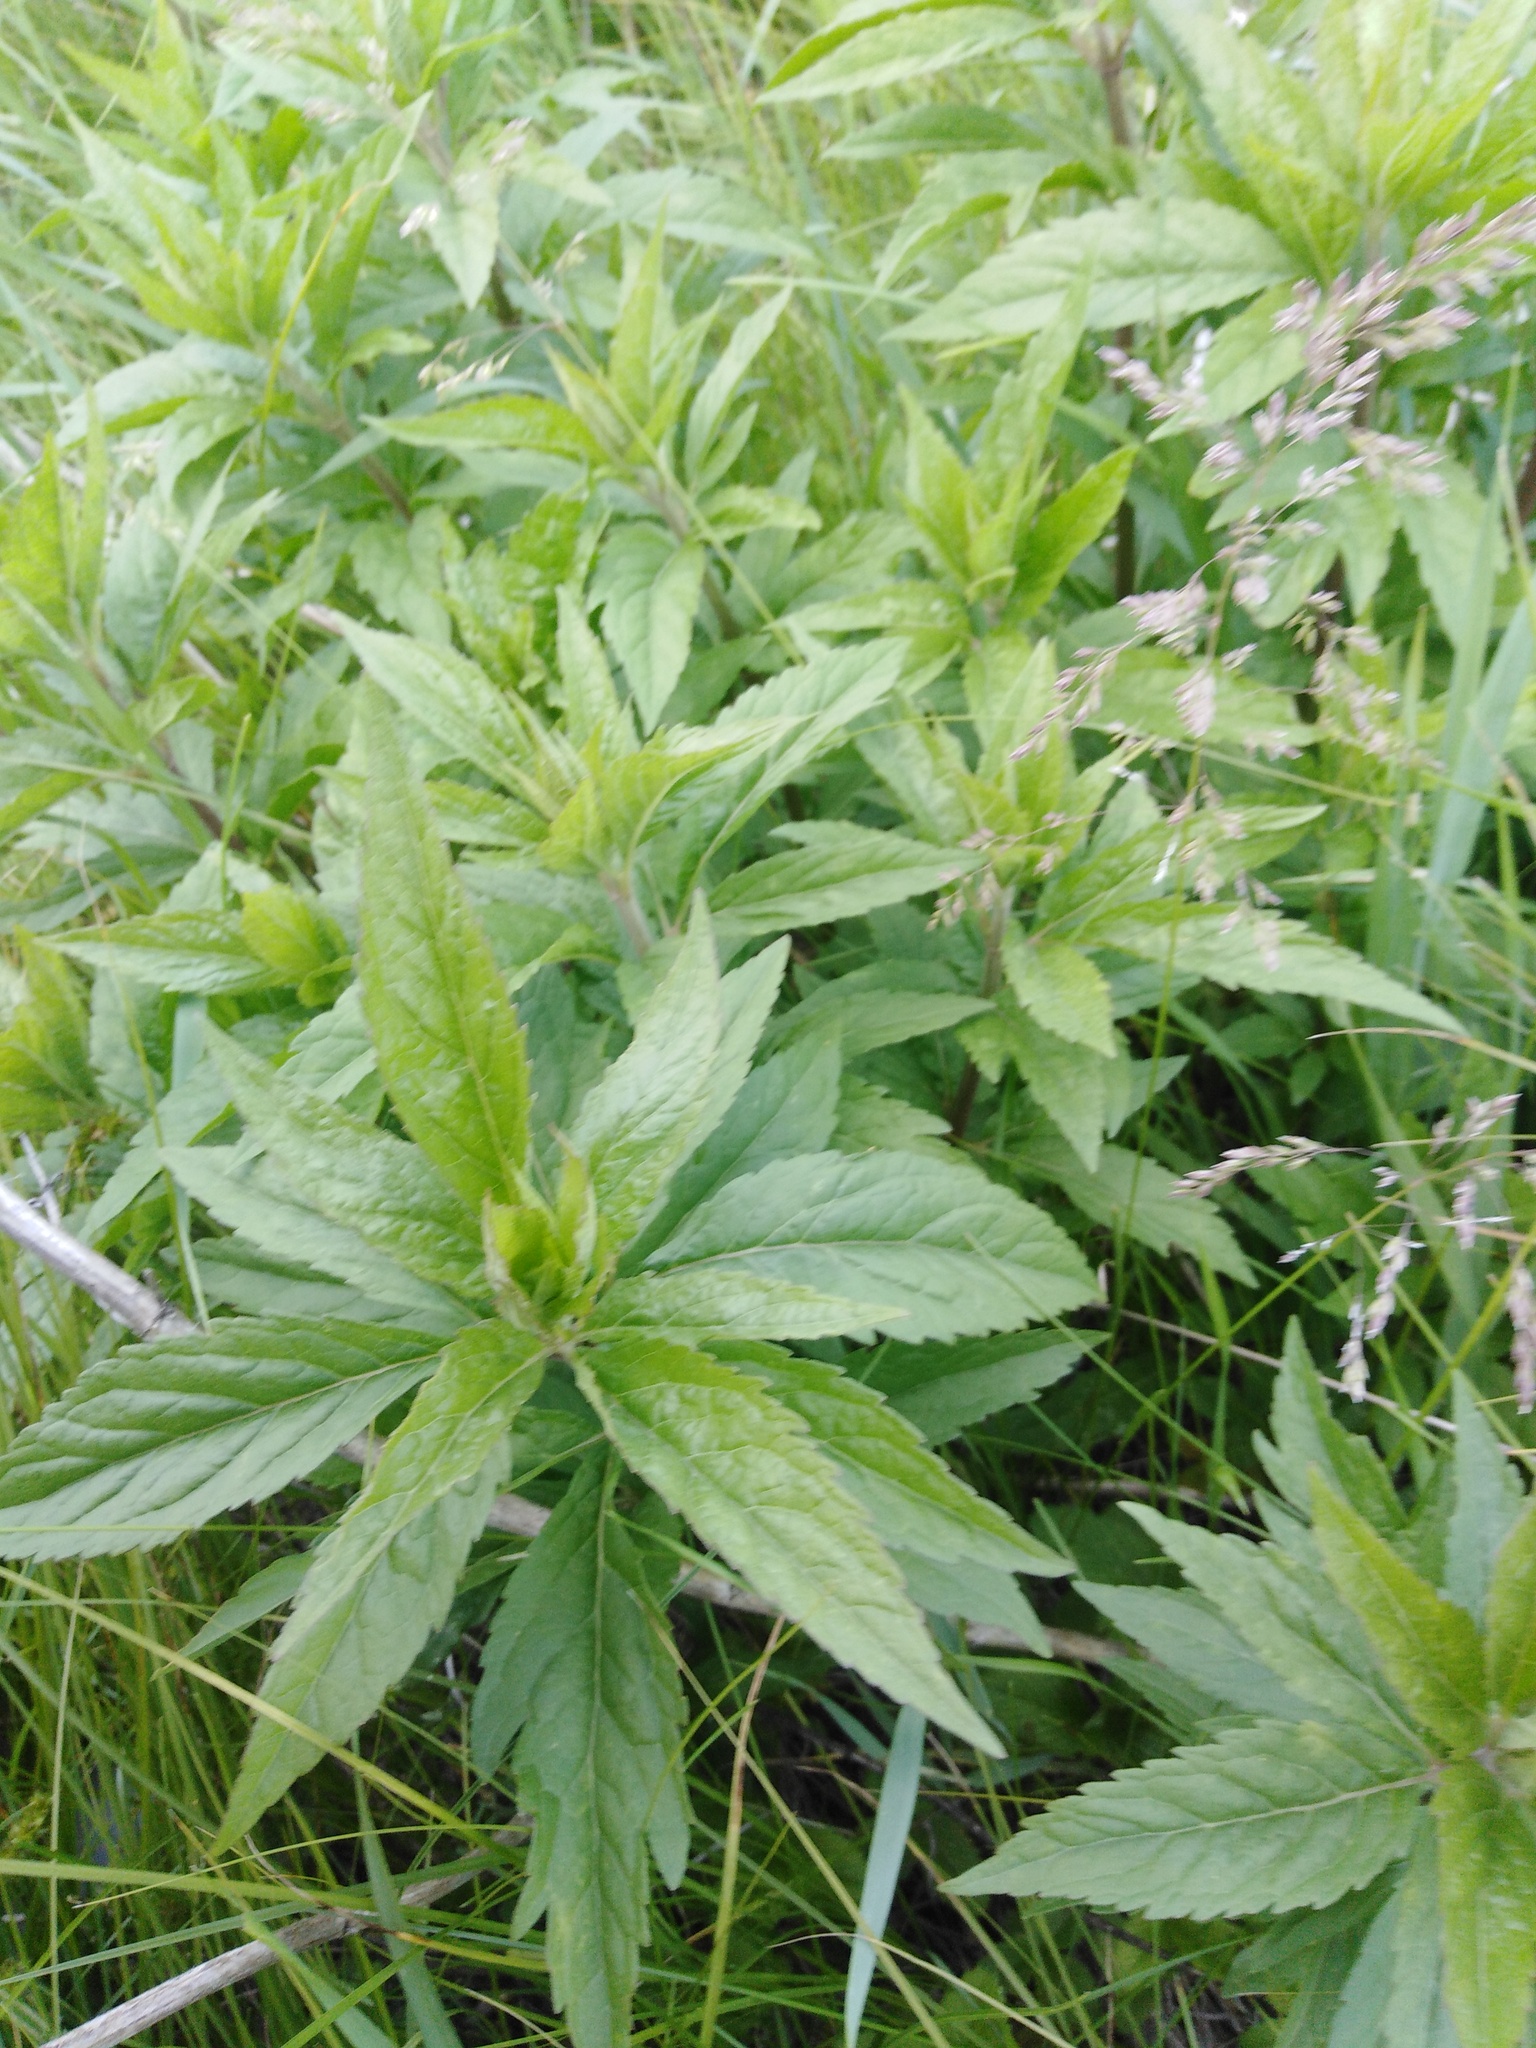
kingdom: Plantae
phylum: Tracheophyta
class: Magnoliopsida
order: Asterales
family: Asteraceae
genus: Eupatorium
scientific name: Eupatorium cannabinum
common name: Hemp-agrimony
